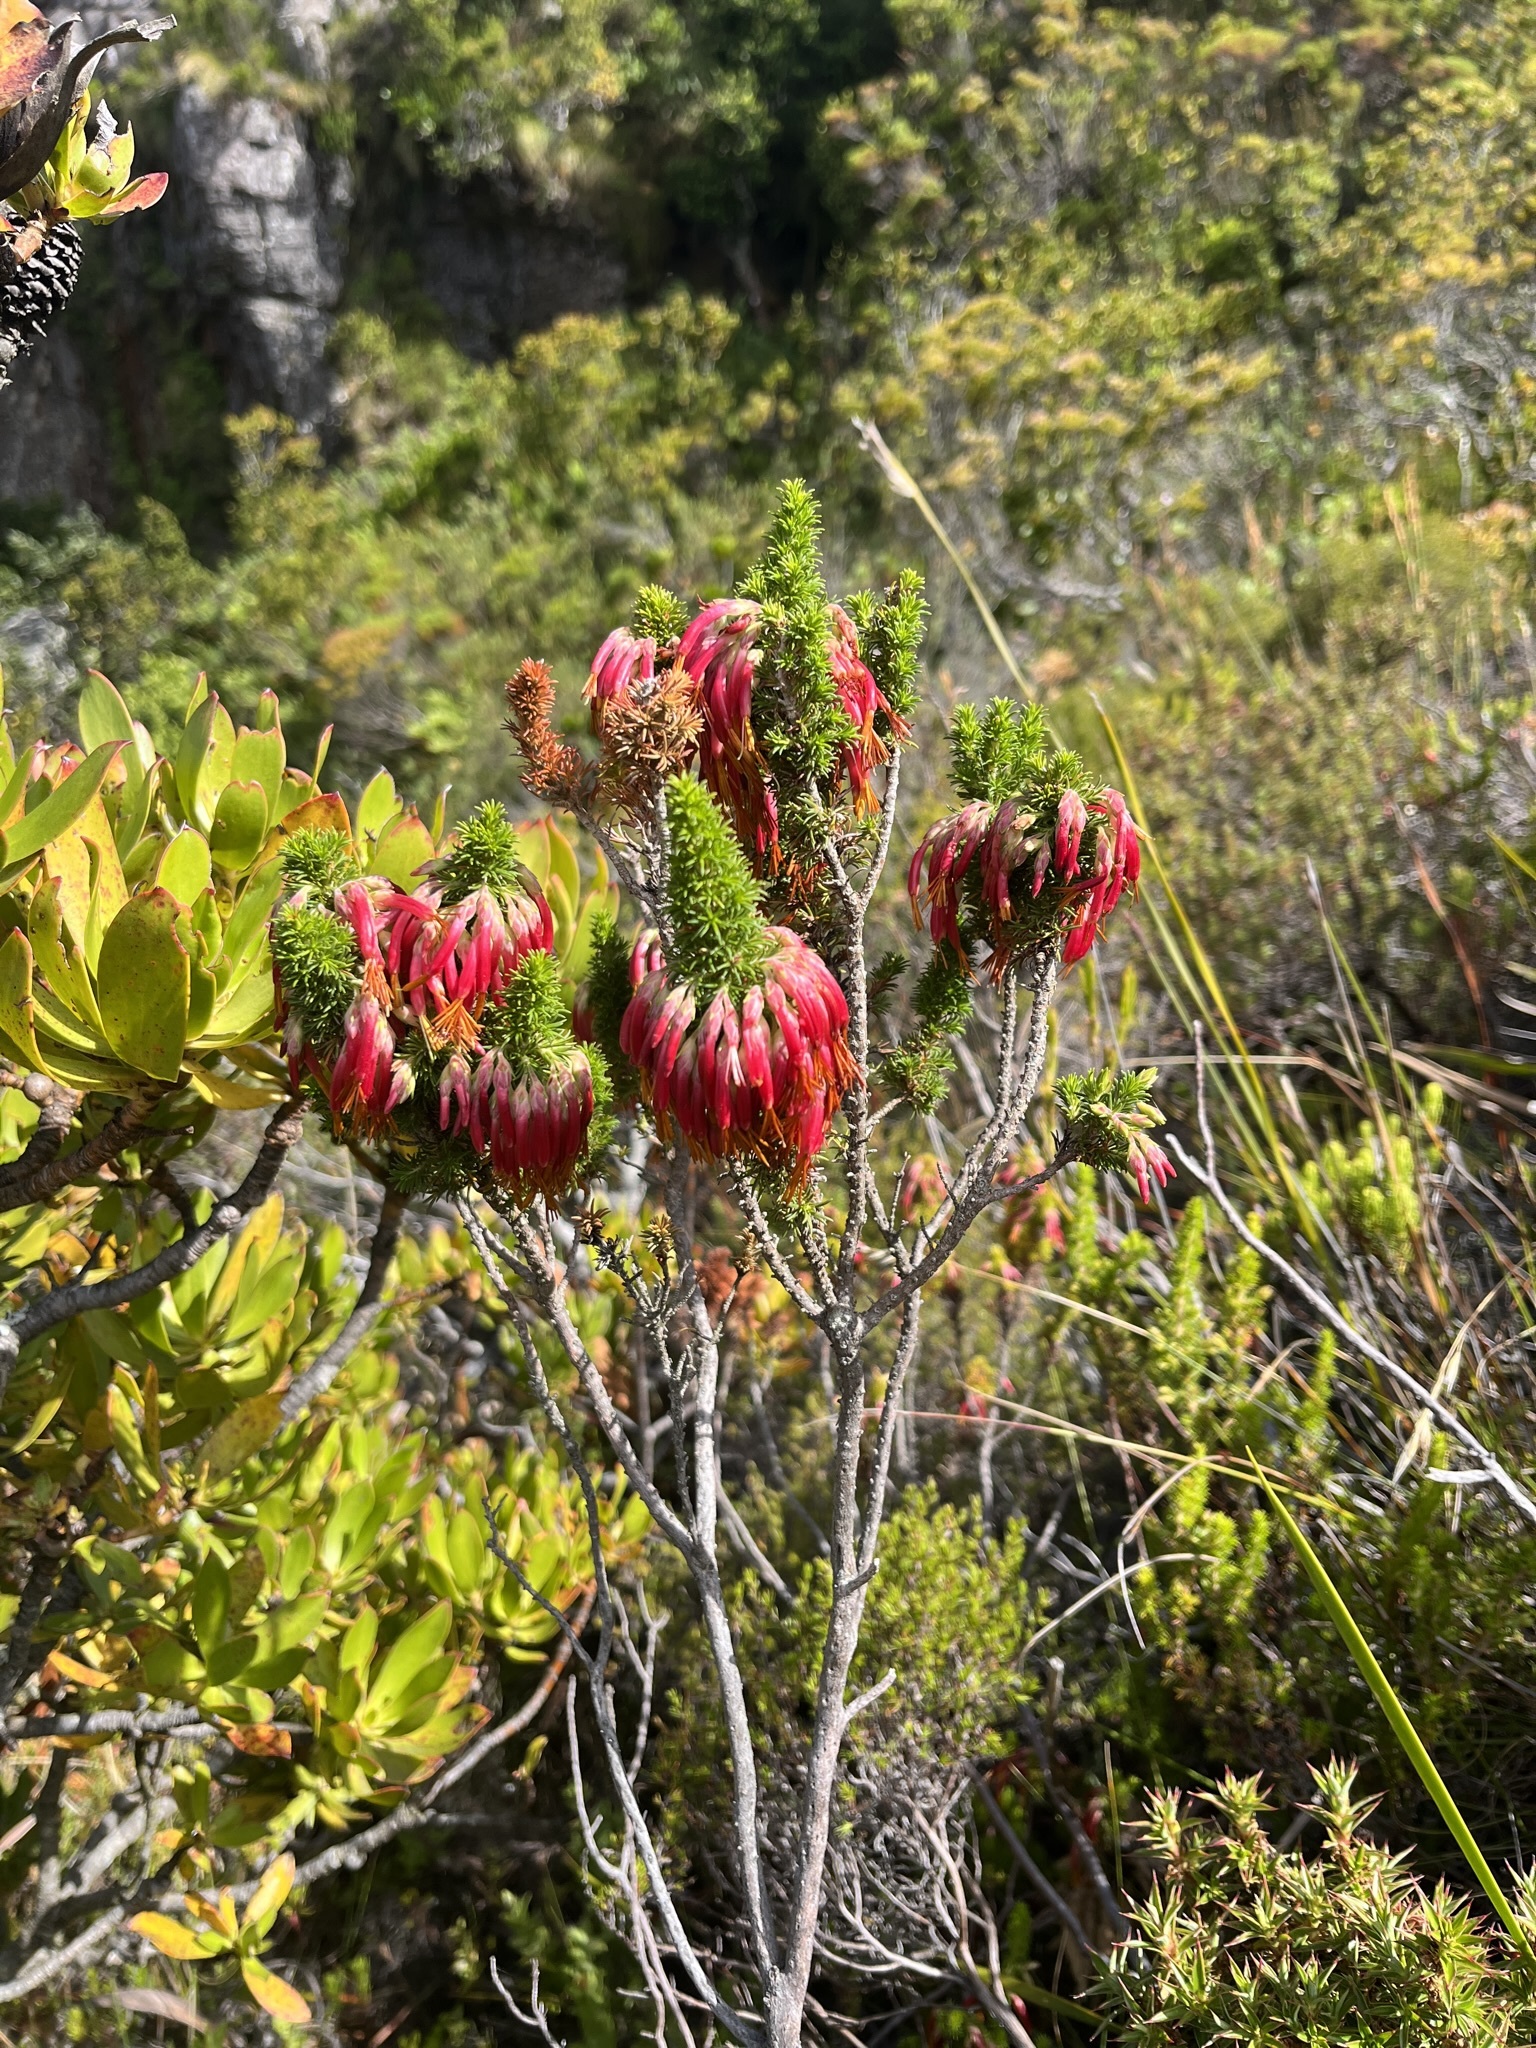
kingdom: Plantae
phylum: Tracheophyta
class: Magnoliopsida
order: Ericales
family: Ericaceae
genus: Erica
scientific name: Erica coccinea
